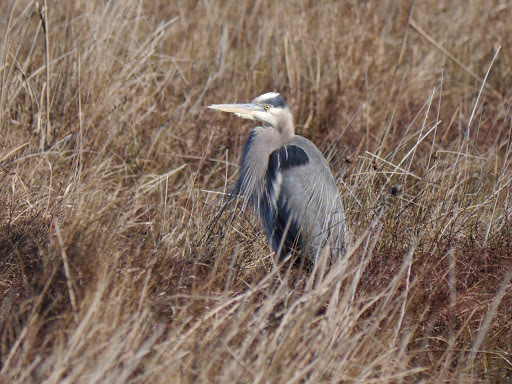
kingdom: Animalia
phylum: Chordata
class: Aves
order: Pelecaniformes
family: Ardeidae
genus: Ardea
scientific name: Ardea herodias
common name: Great blue heron
